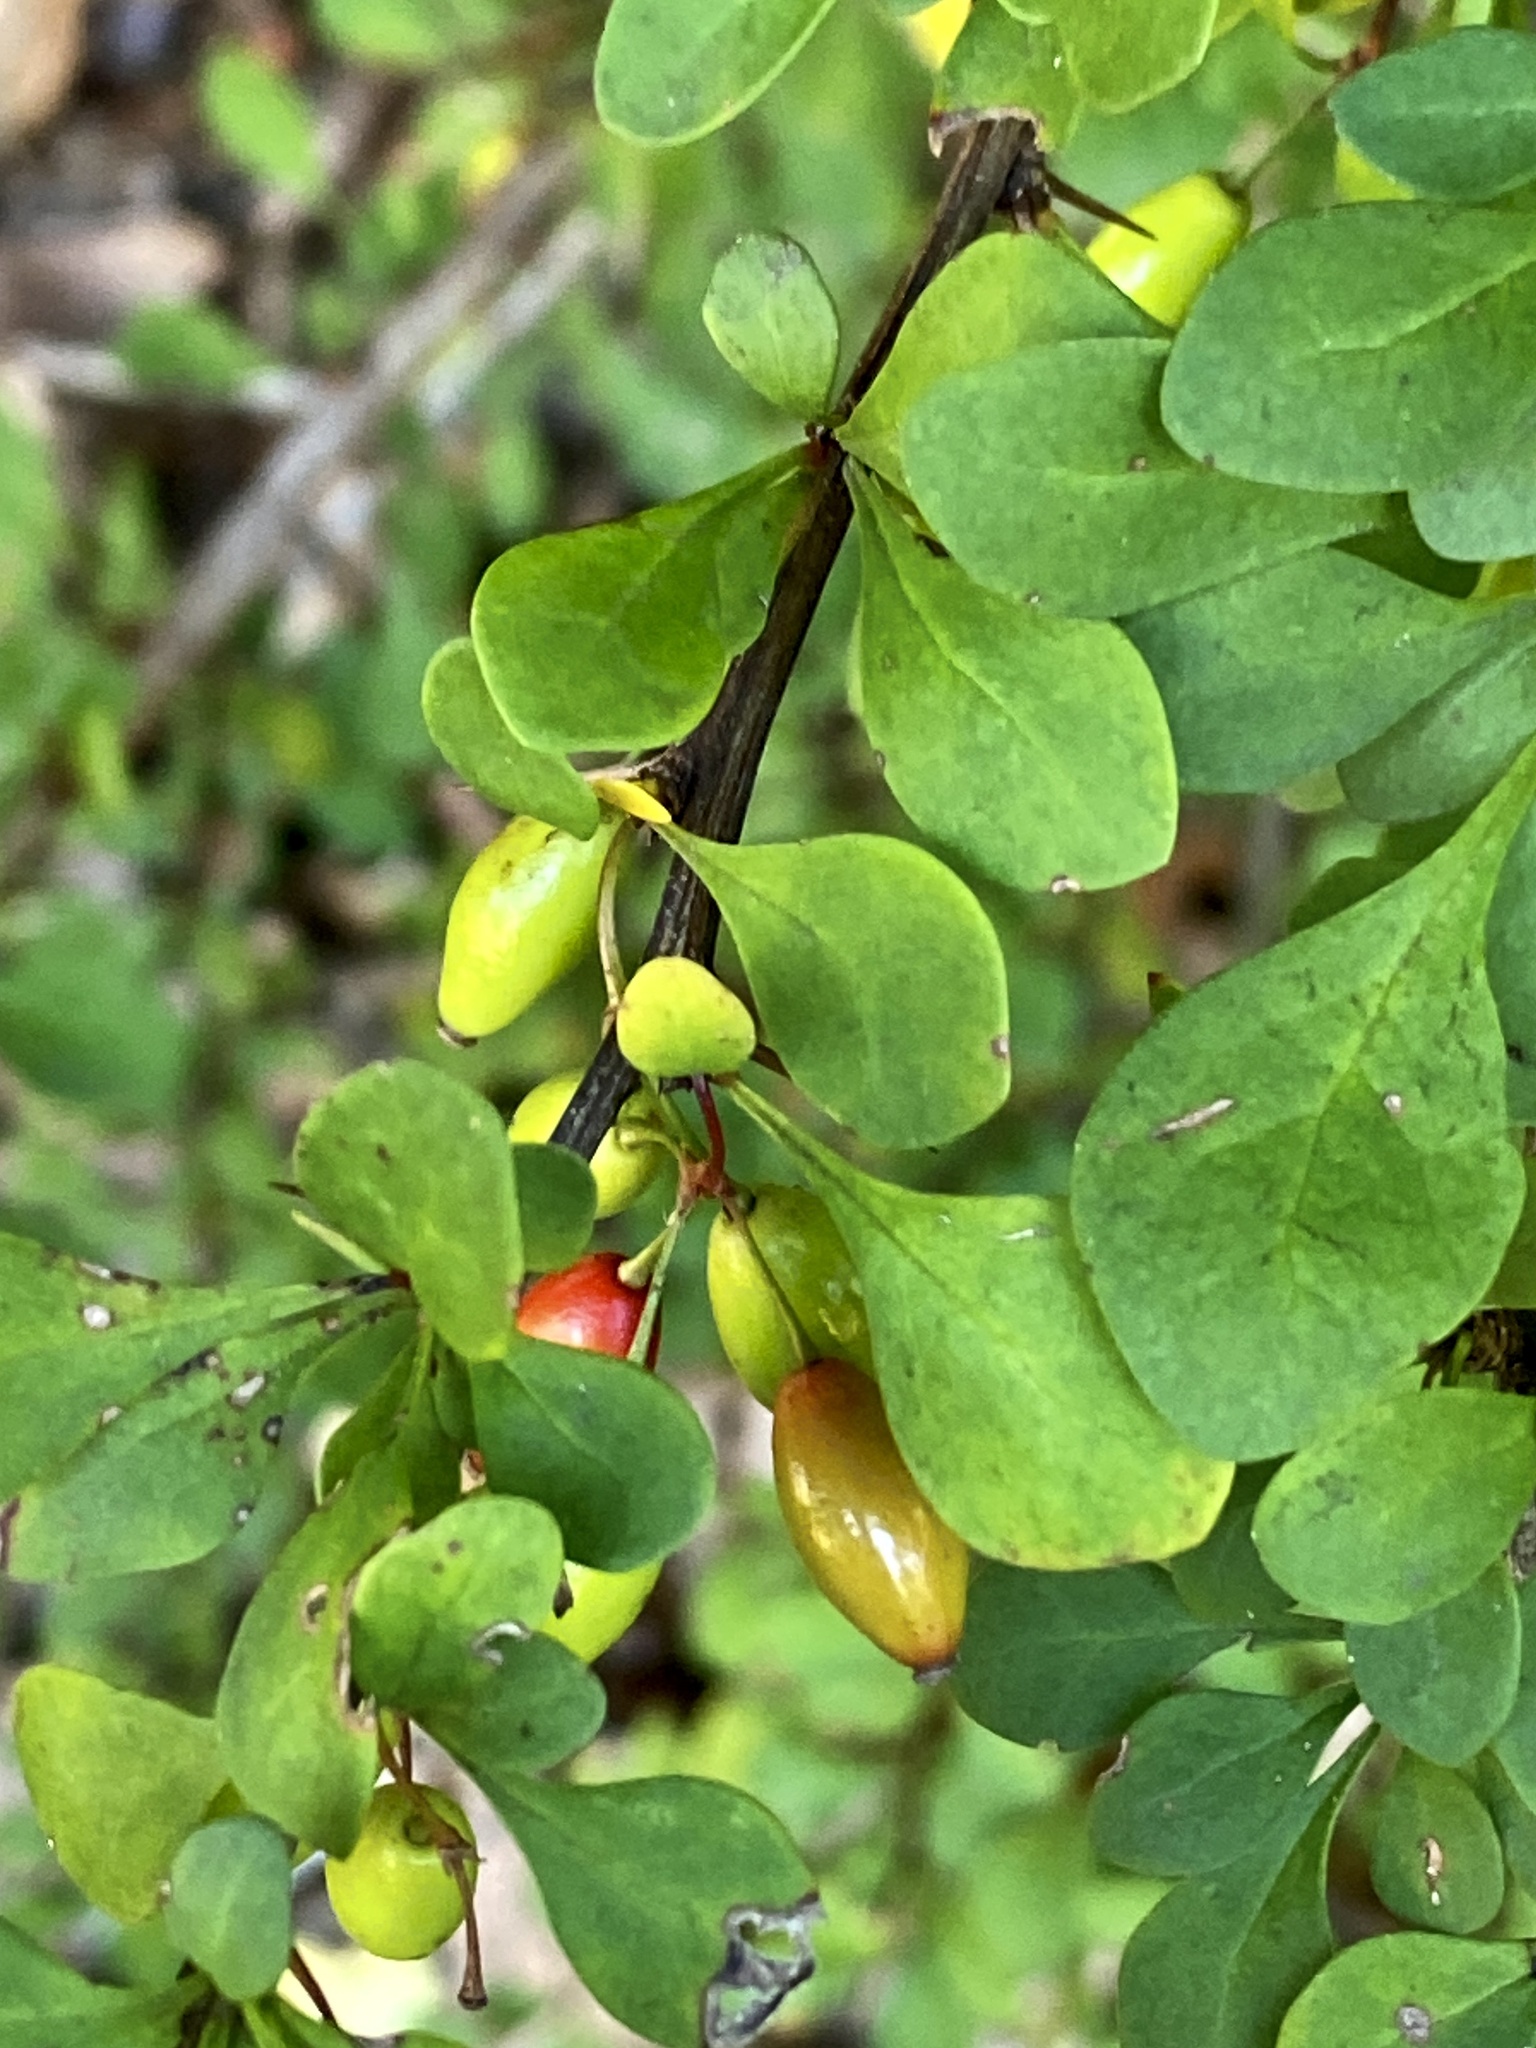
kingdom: Plantae
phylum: Tracheophyta
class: Magnoliopsida
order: Ranunculales
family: Berberidaceae
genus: Berberis
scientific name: Berberis thunbergii
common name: Japanese barberry
